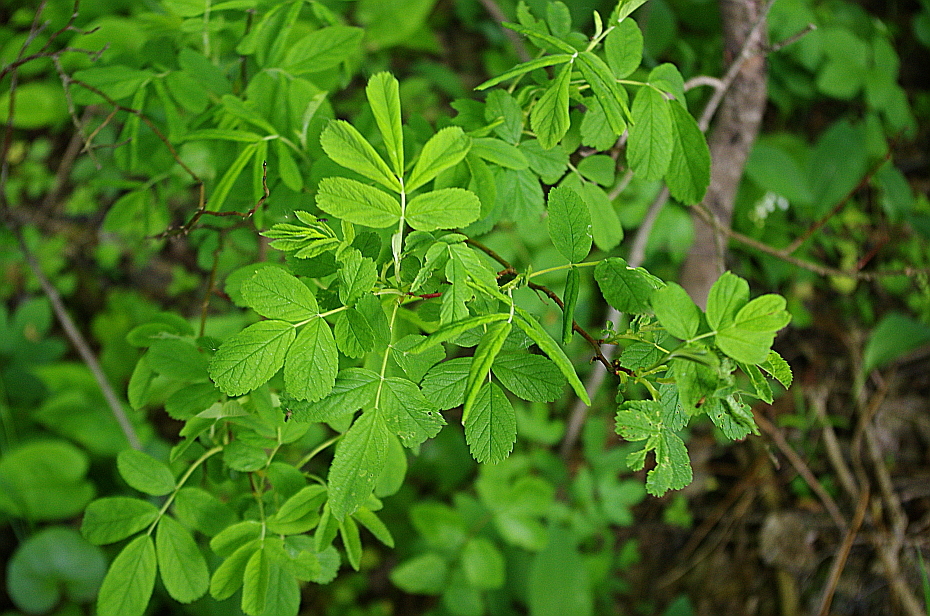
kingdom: Plantae
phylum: Tracheophyta
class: Magnoliopsida
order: Rosales
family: Rosaceae
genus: Rosa
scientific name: Rosa majalis
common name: Cinnamon rose
